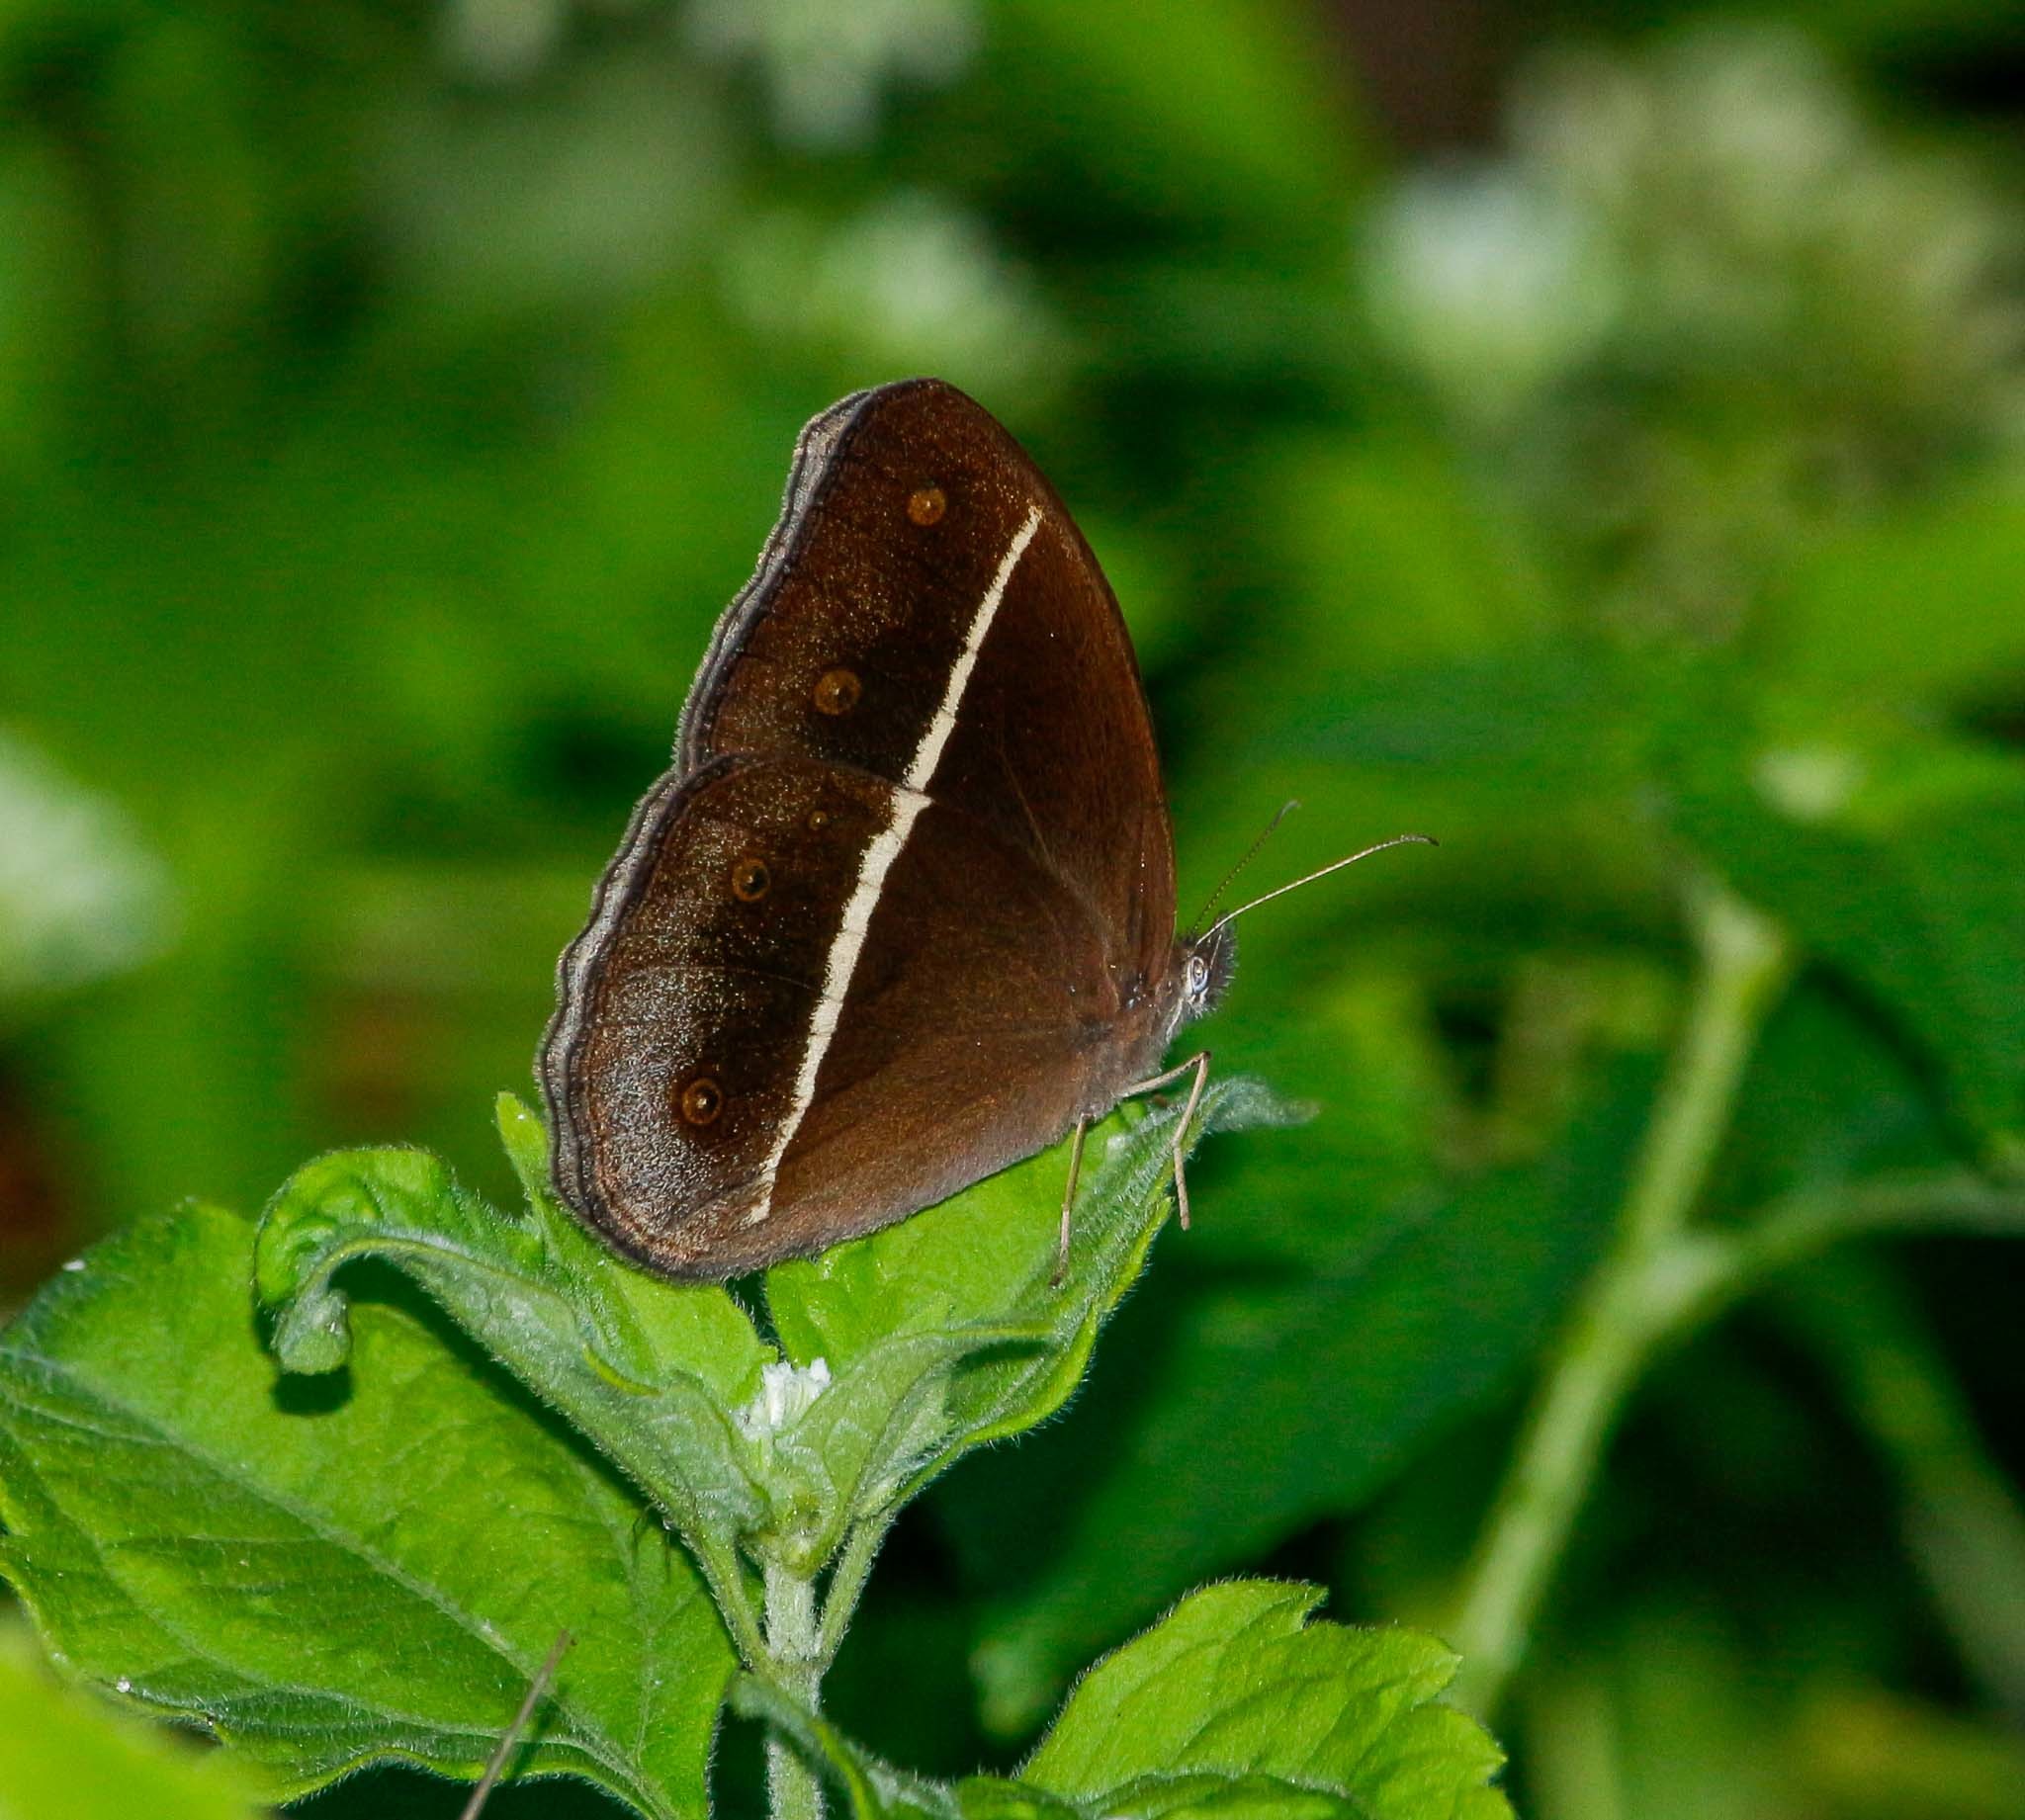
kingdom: Animalia
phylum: Arthropoda
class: Insecta
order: Lepidoptera
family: Nymphalidae
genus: Orsotriaena
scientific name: Orsotriaena medus
